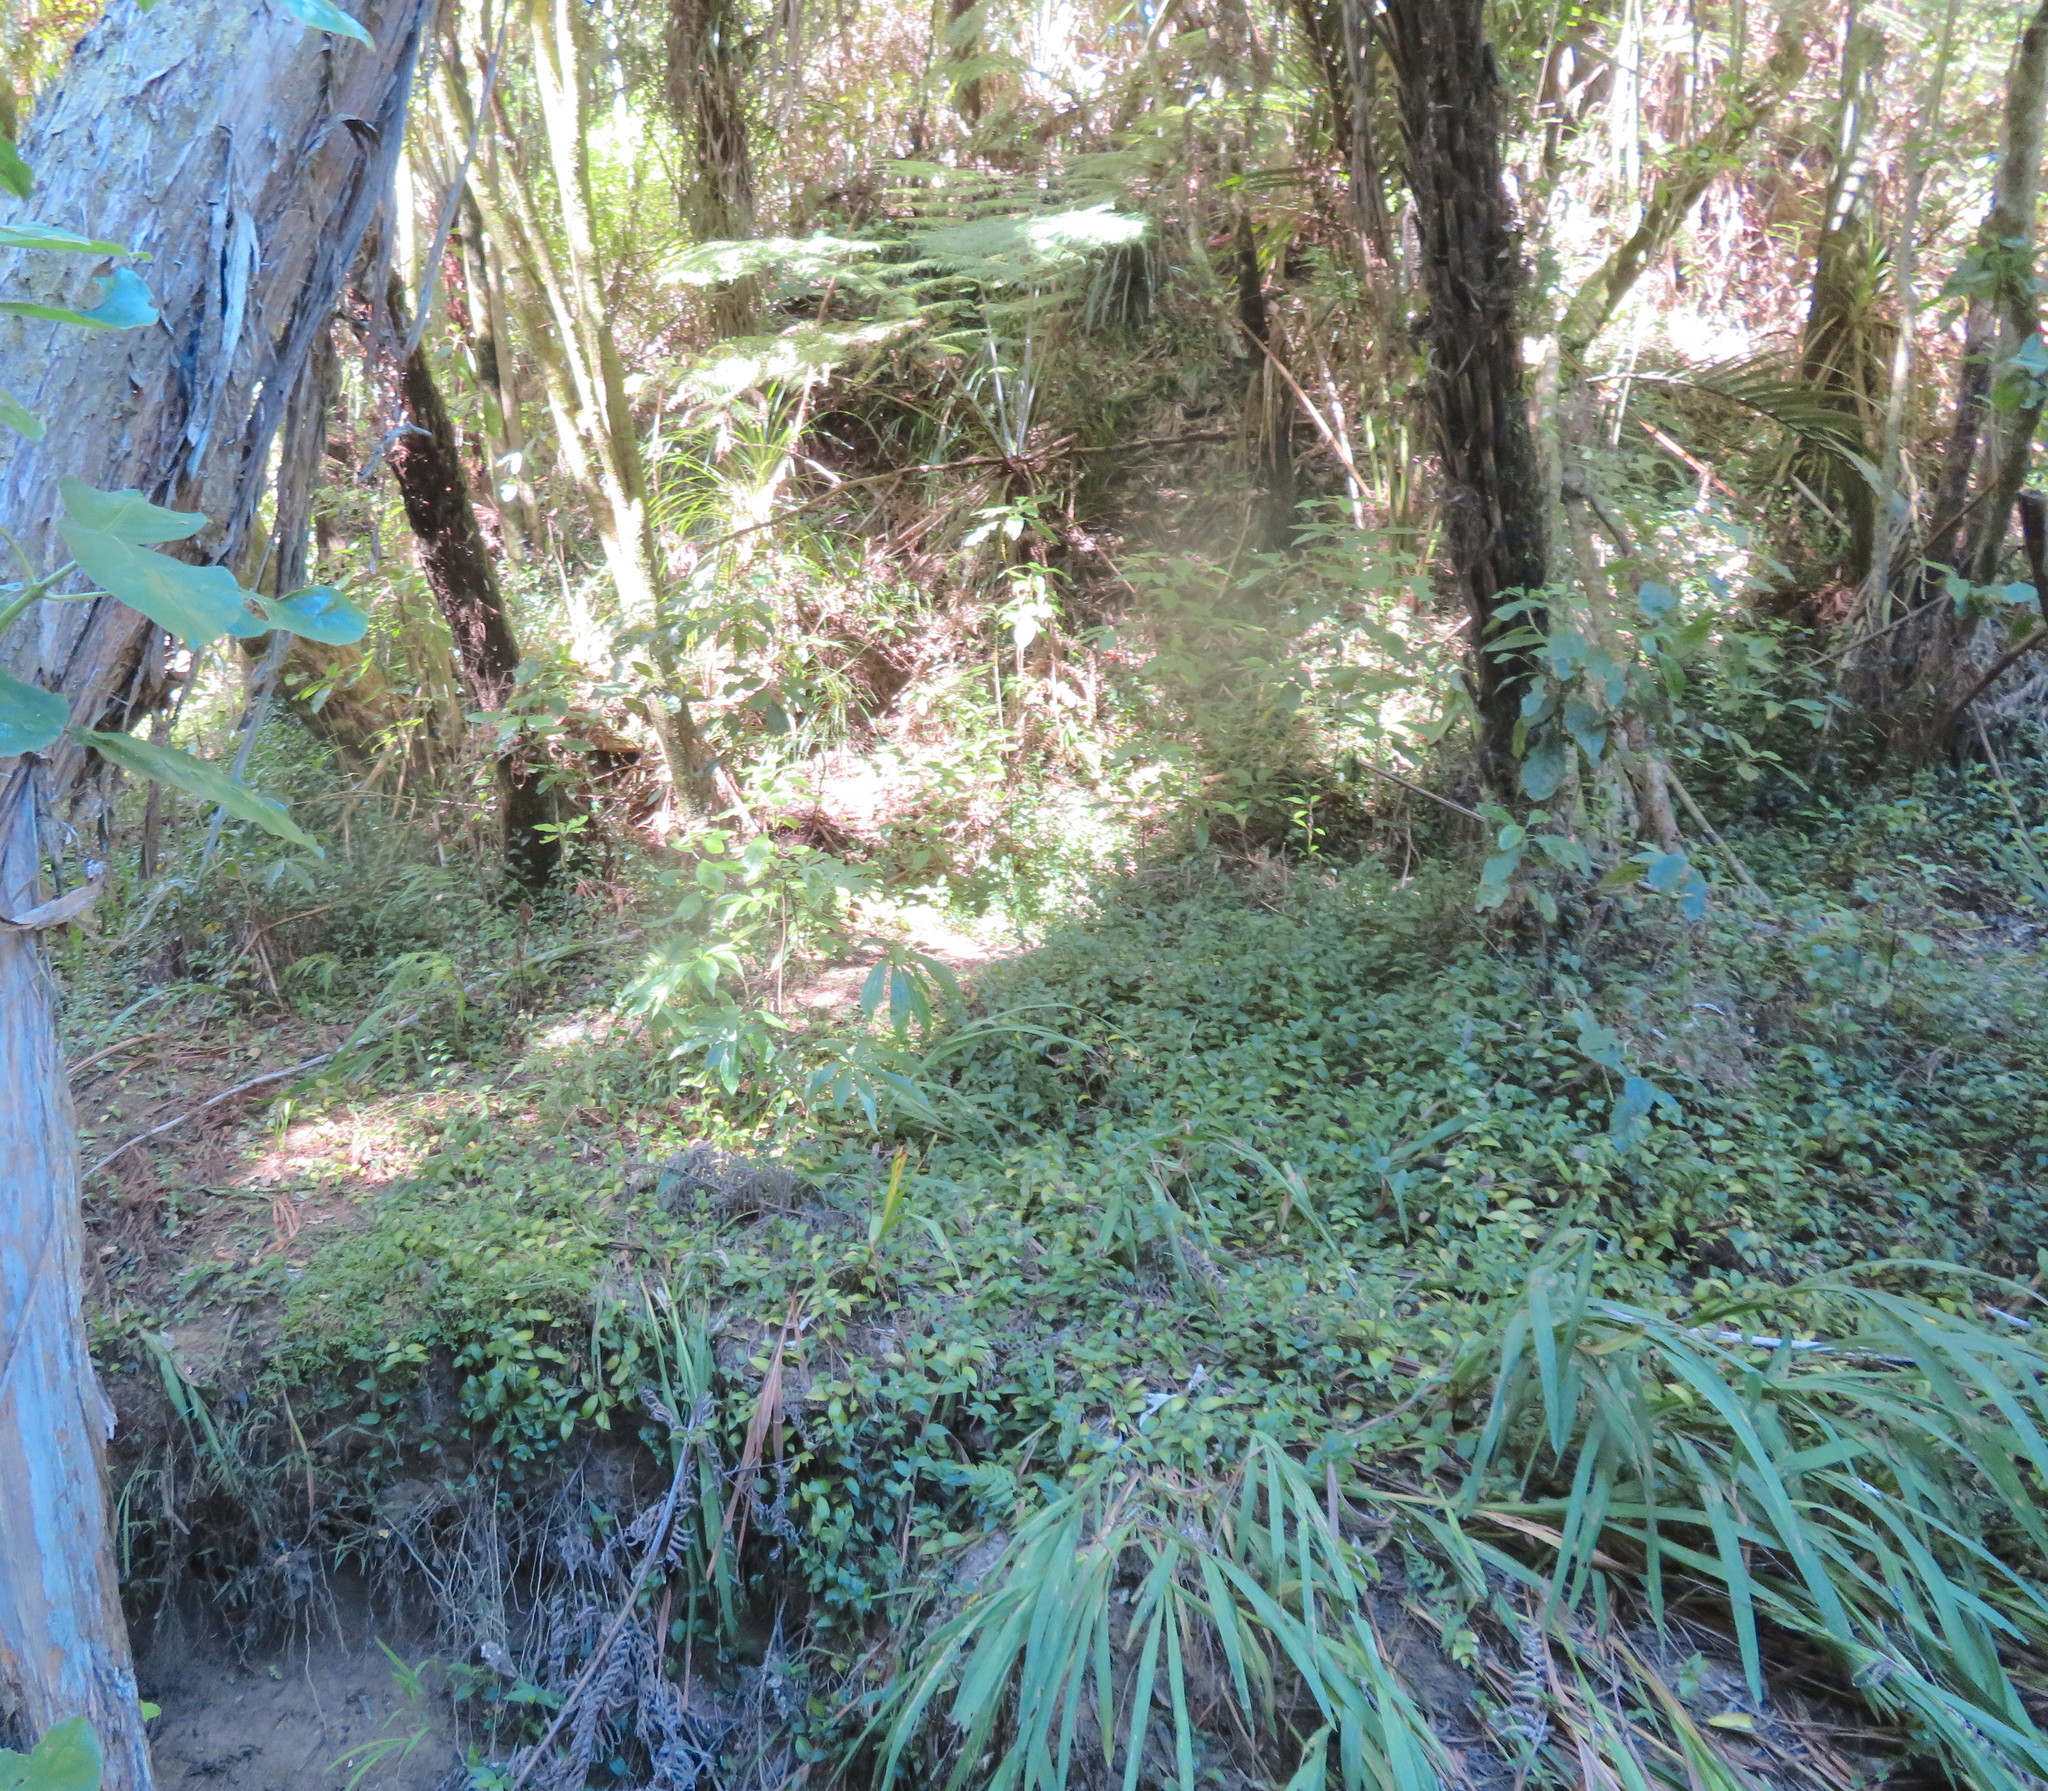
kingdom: Plantae
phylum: Tracheophyta
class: Liliopsida
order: Commelinales
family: Commelinaceae
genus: Tradescantia
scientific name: Tradescantia fluminensis
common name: Wandering-jew
